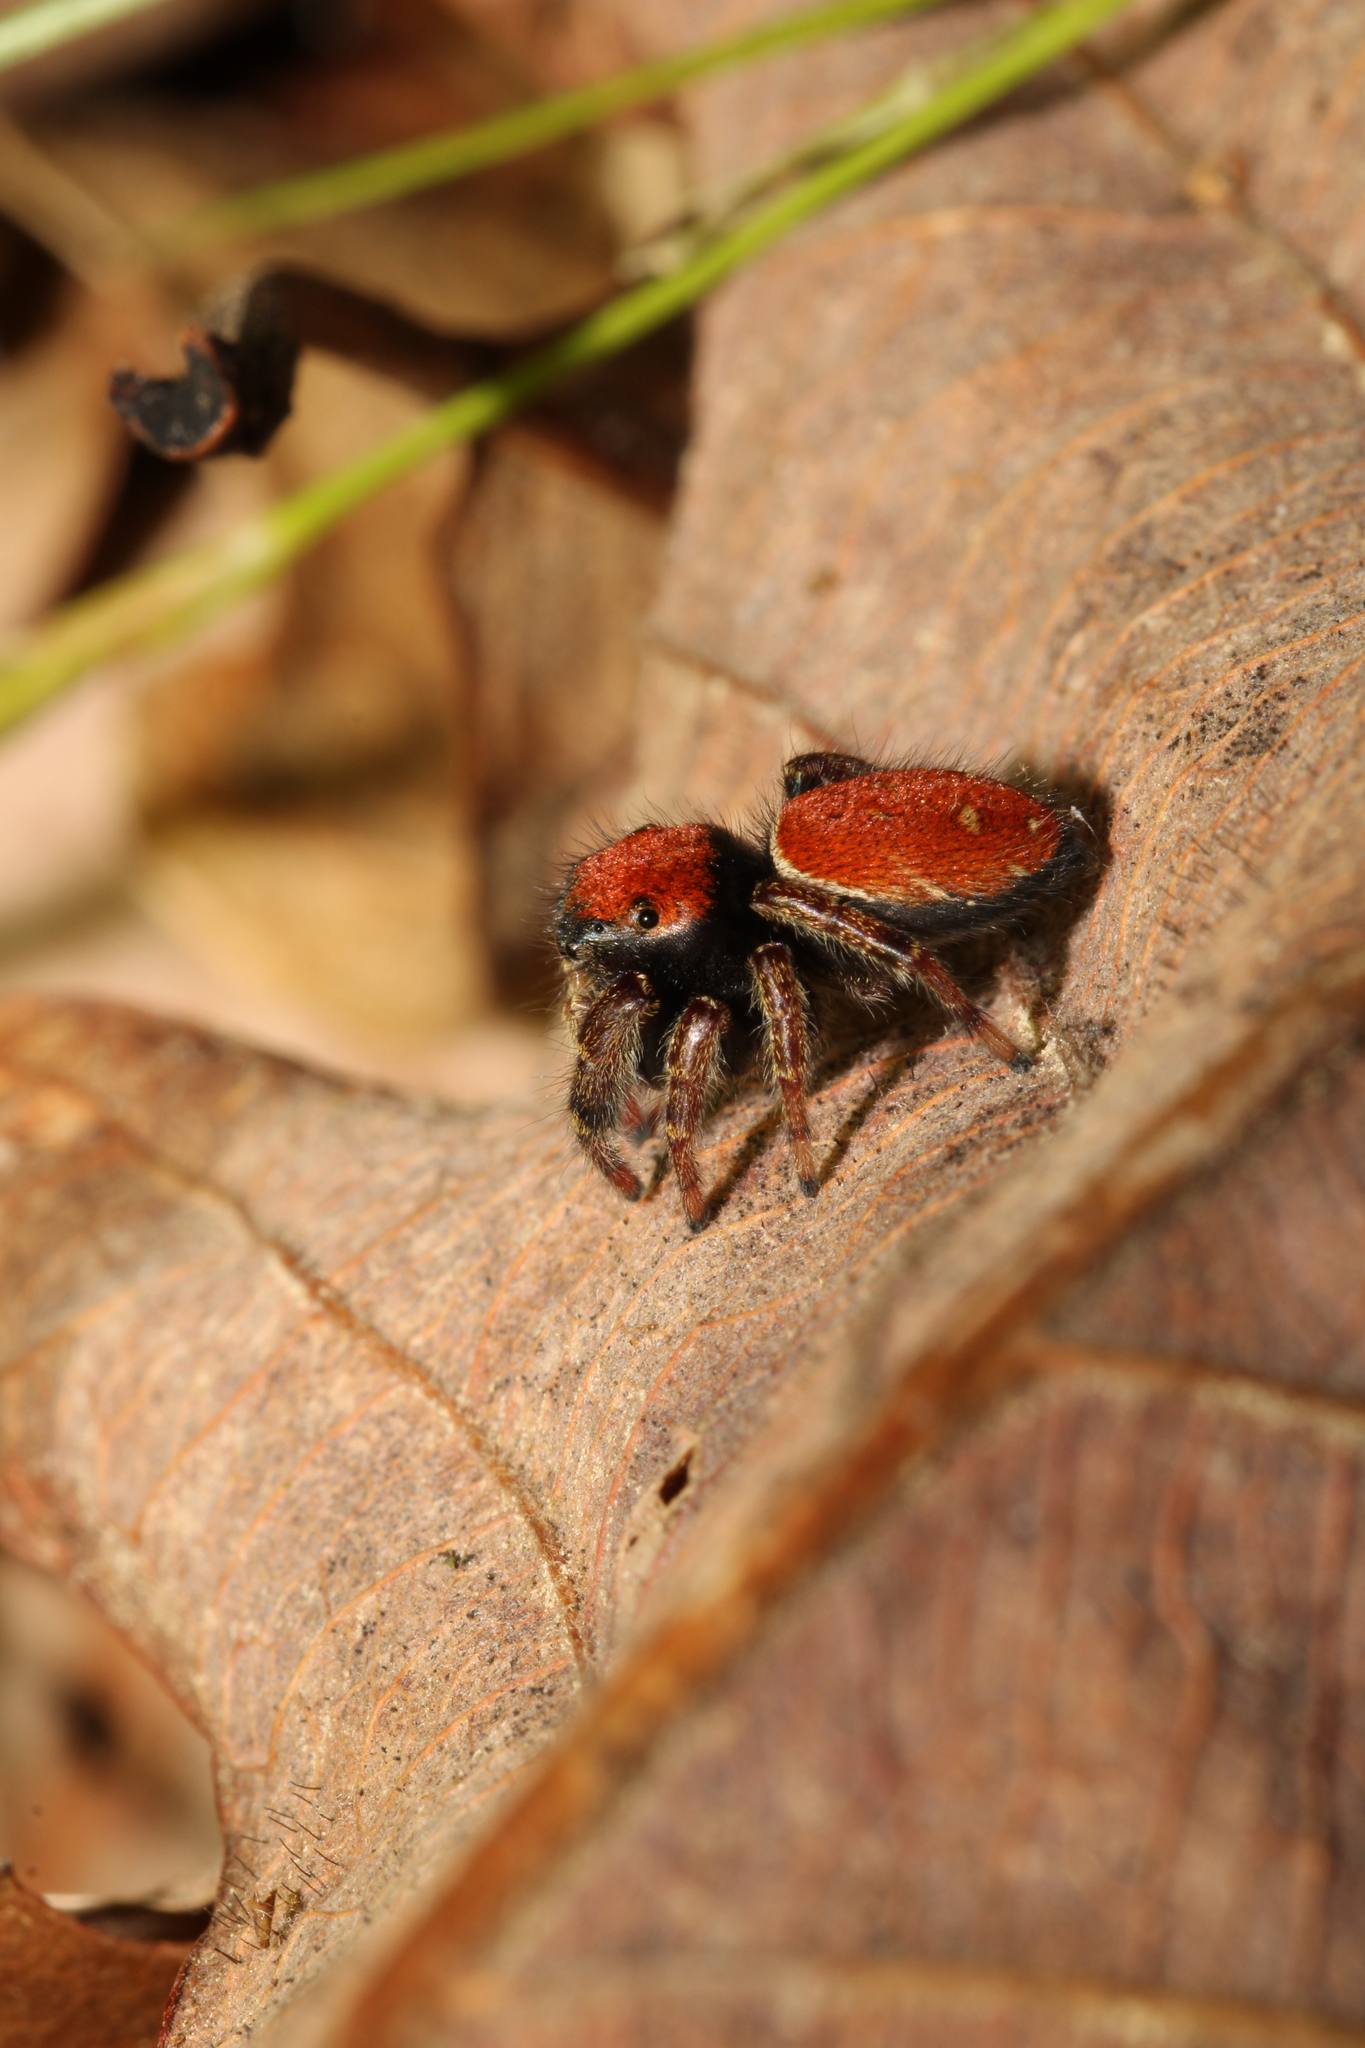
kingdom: Animalia
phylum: Arthropoda
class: Arachnida
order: Araneae
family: Salticidae
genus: Phidippus
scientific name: Phidippus whitmani
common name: Whitman's jumping spider
